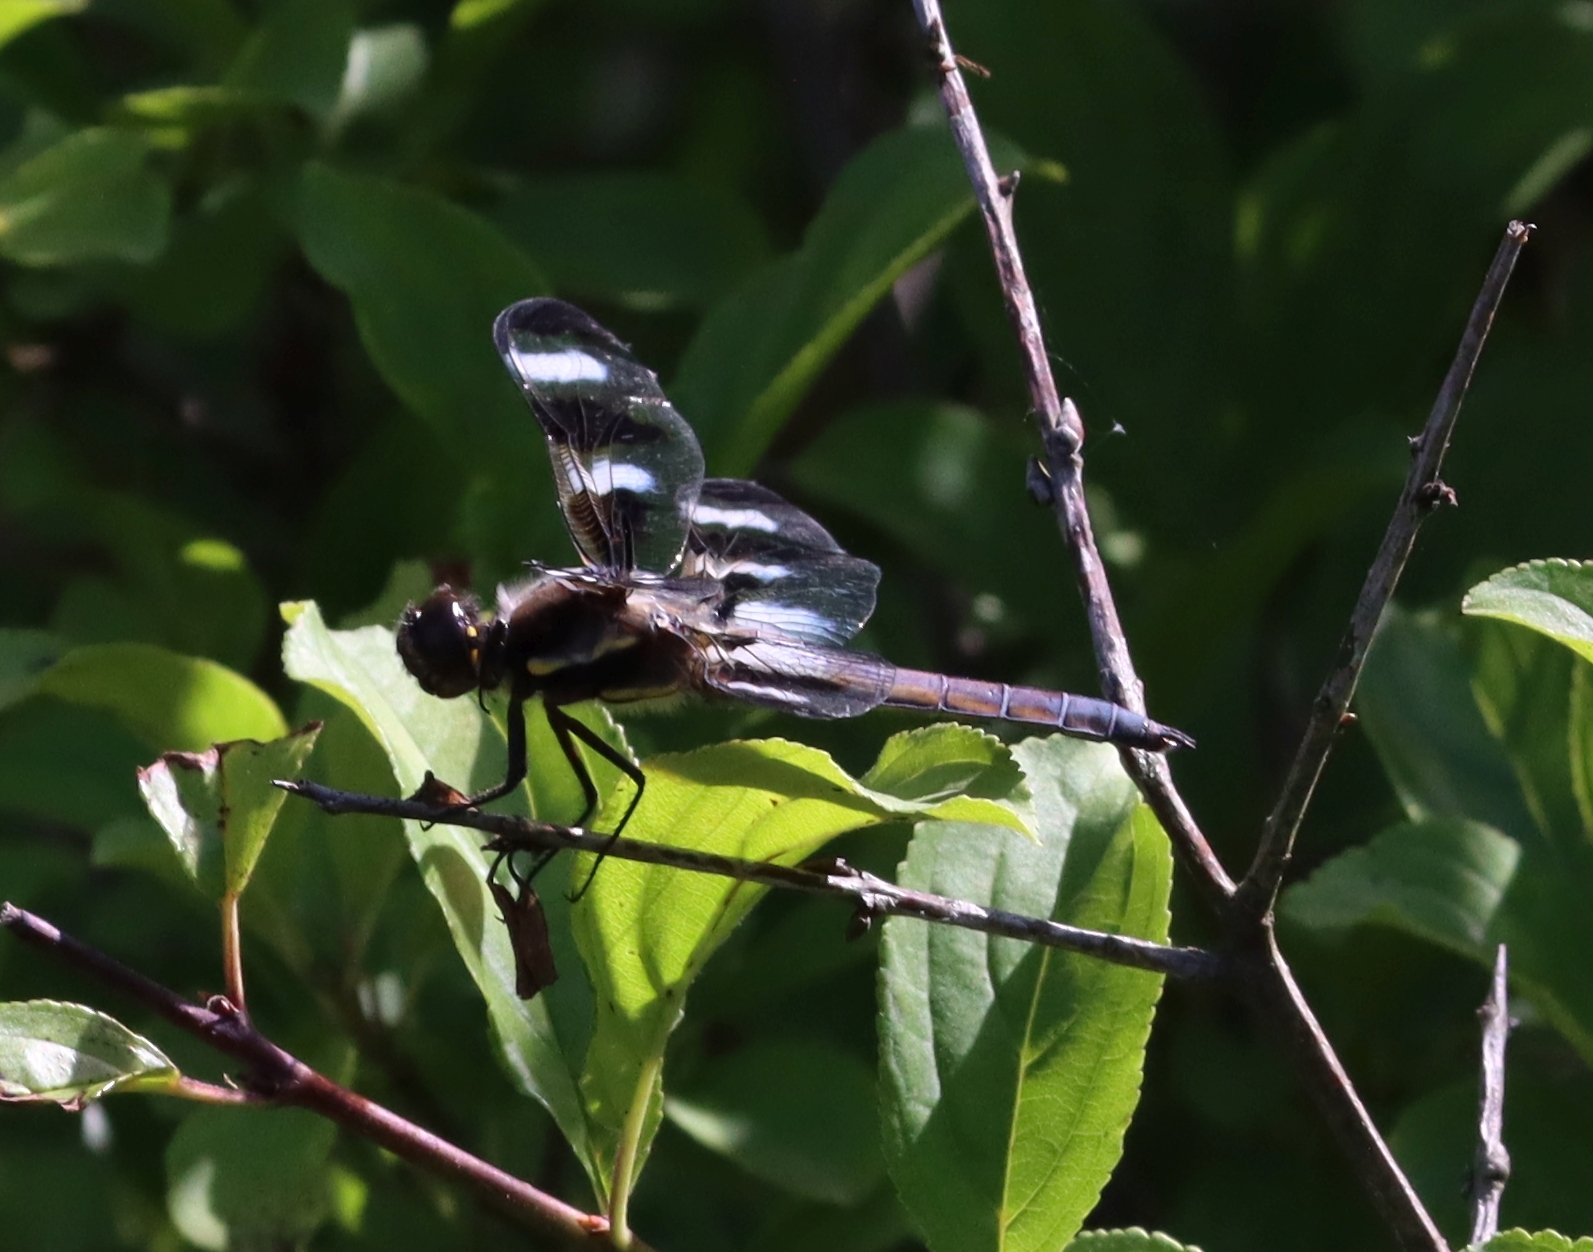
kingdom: Animalia
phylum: Arthropoda
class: Insecta
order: Odonata
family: Libellulidae
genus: Libellula
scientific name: Libellula pulchella
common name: Twelve-spotted skimmer
